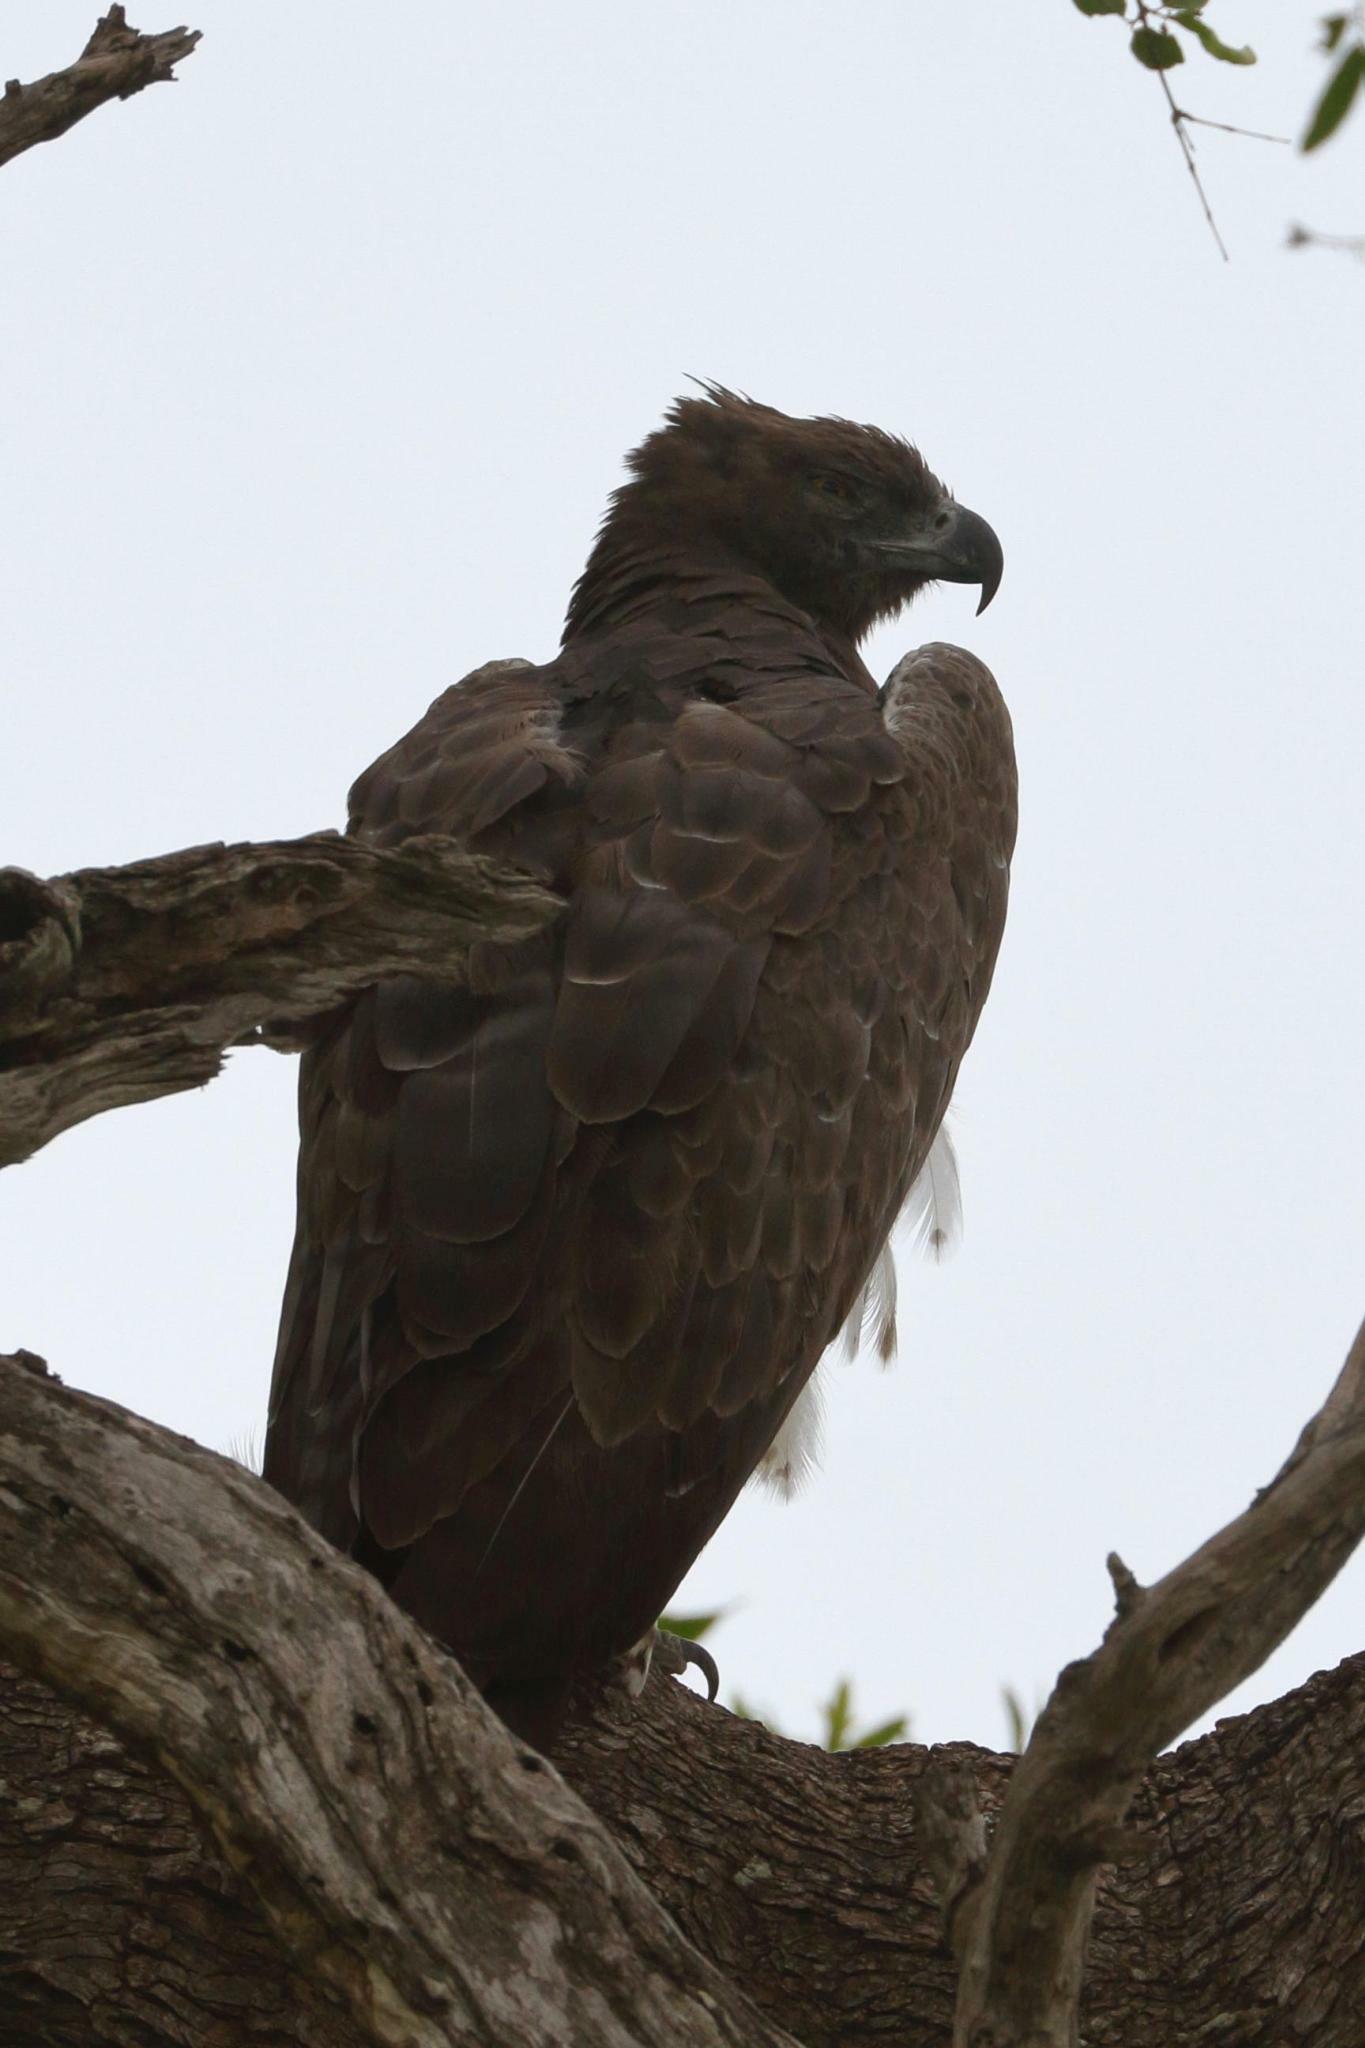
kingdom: Animalia
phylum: Chordata
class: Aves
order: Accipitriformes
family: Accipitridae
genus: Polemaetus
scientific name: Polemaetus bellicosus
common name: Martial eagle
